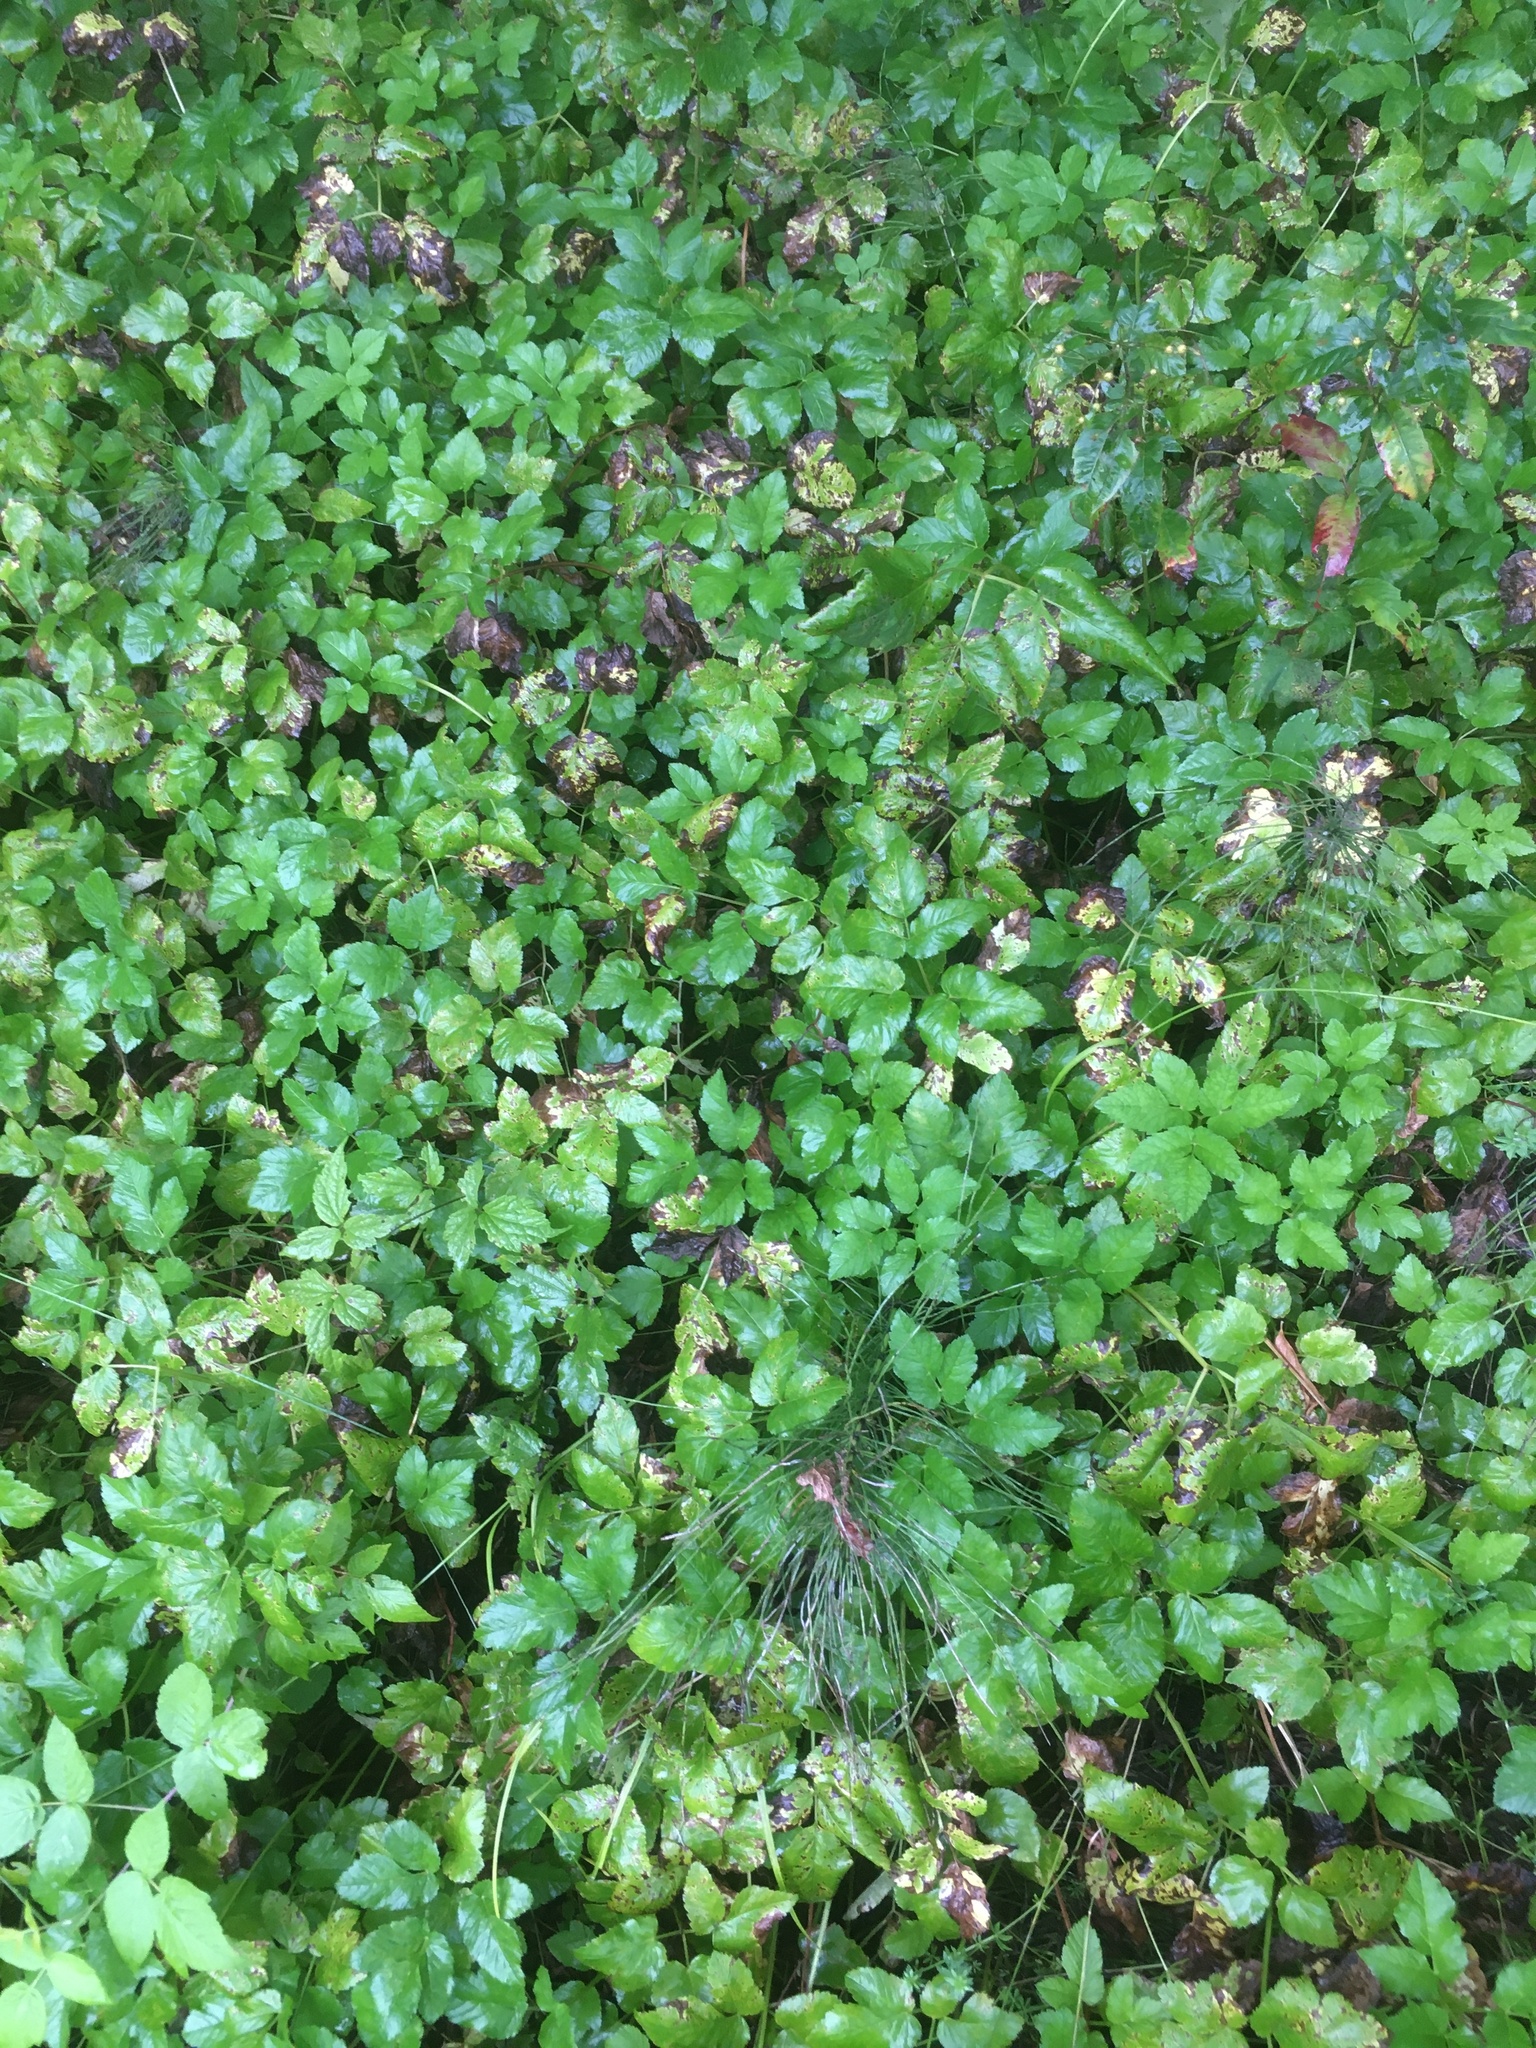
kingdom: Plantae
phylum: Tracheophyta
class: Magnoliopsida
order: Apiales
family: Apiaceae
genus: Aegopodium
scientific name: Aegopodium podagraria
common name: Ground-elder
